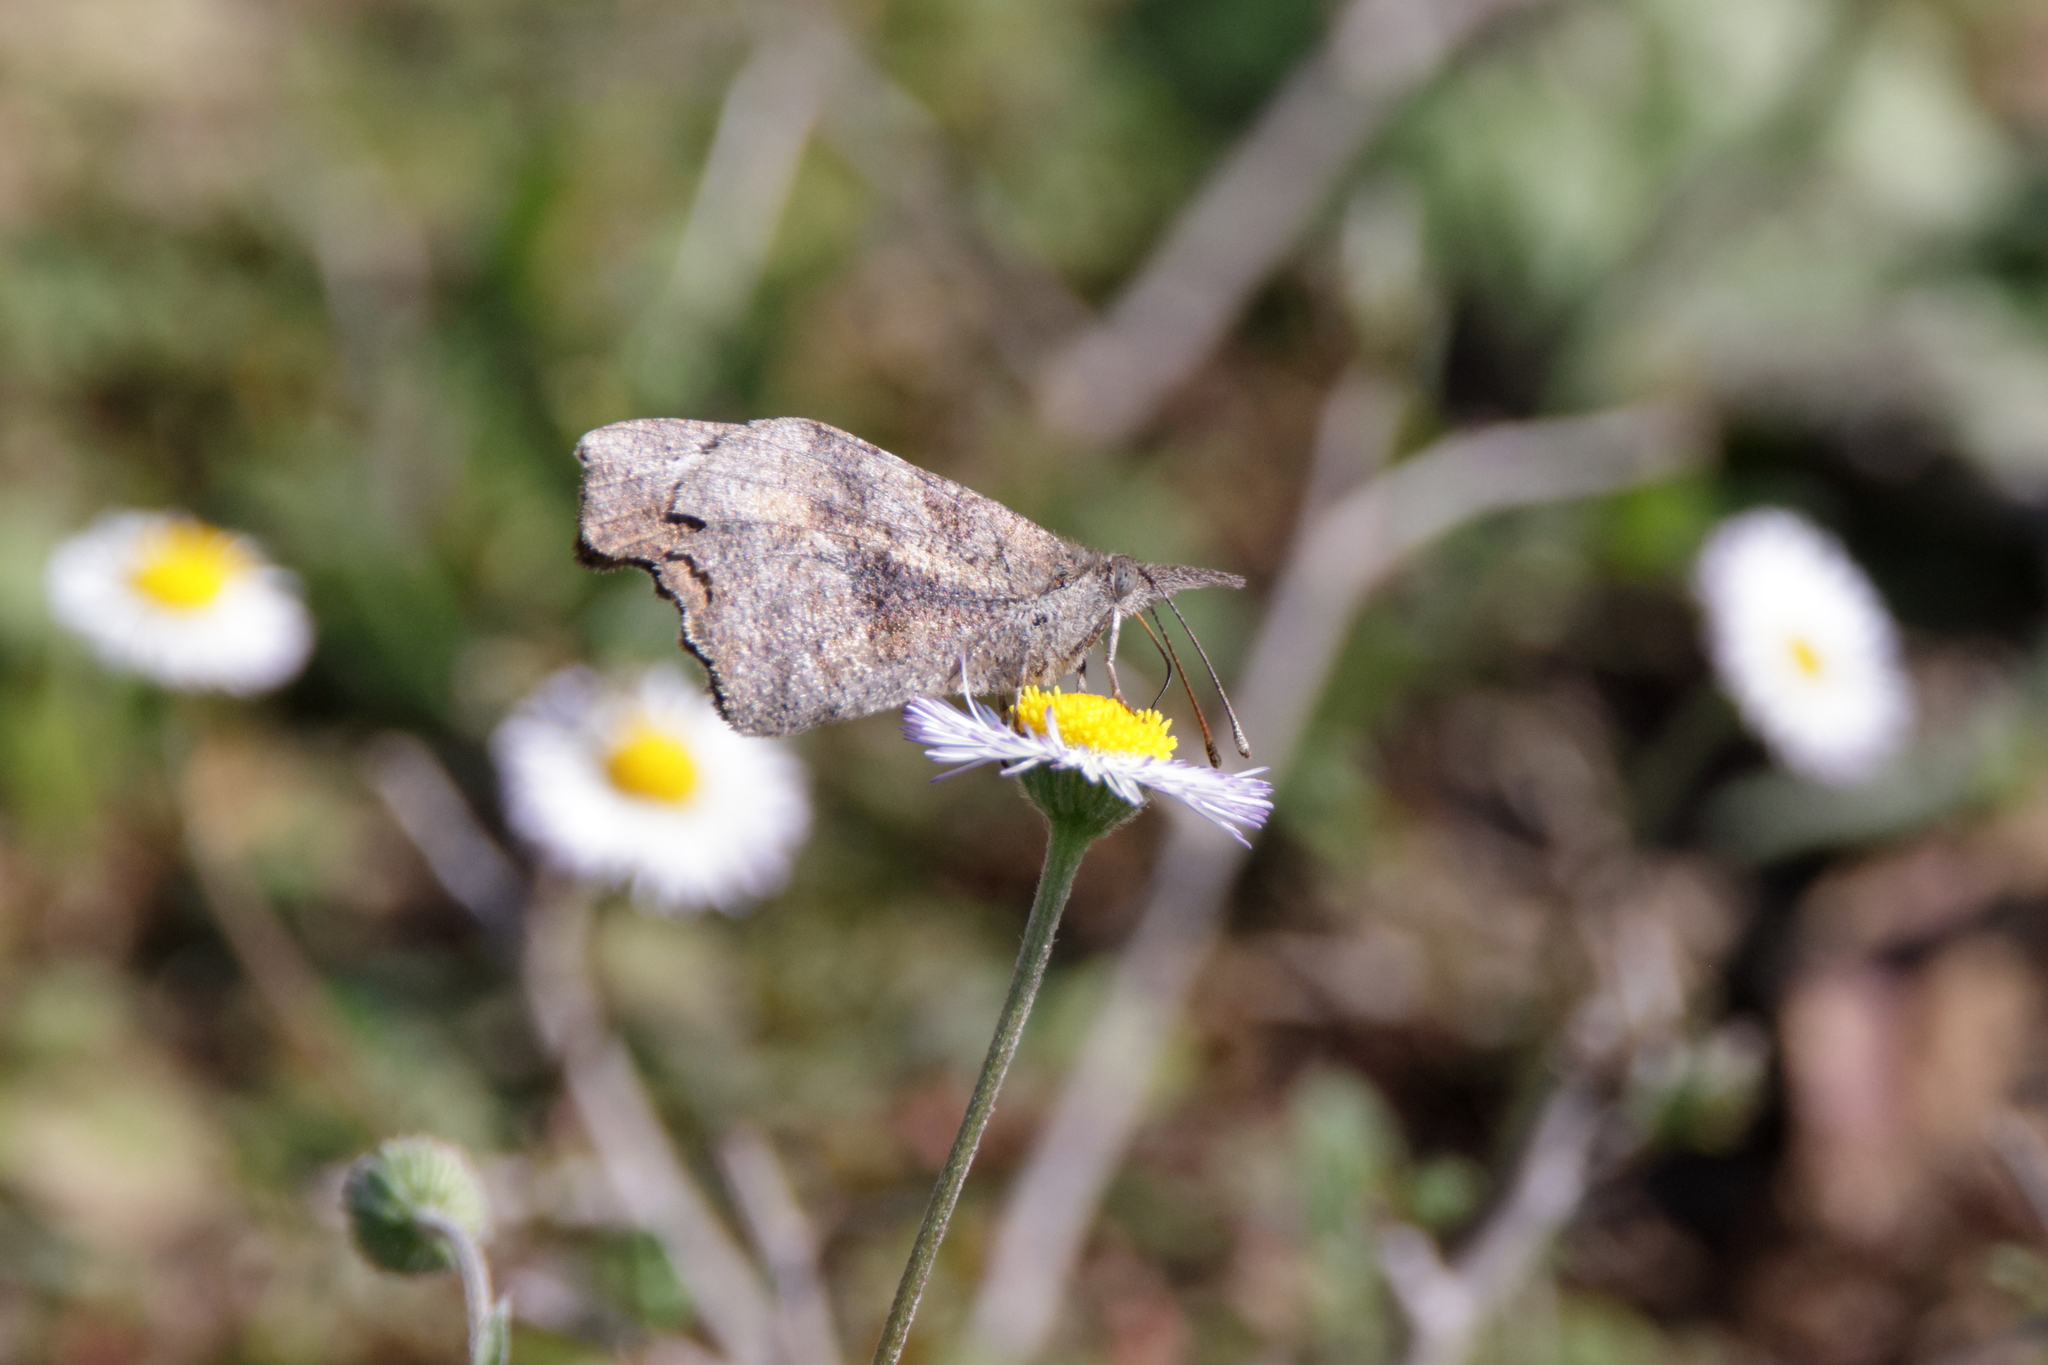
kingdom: Animalia
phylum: Arthropoda
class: Insecta
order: Lepidoptera
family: Nymphalidae
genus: Libytheana
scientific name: Libytheana carinenta
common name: American snout
